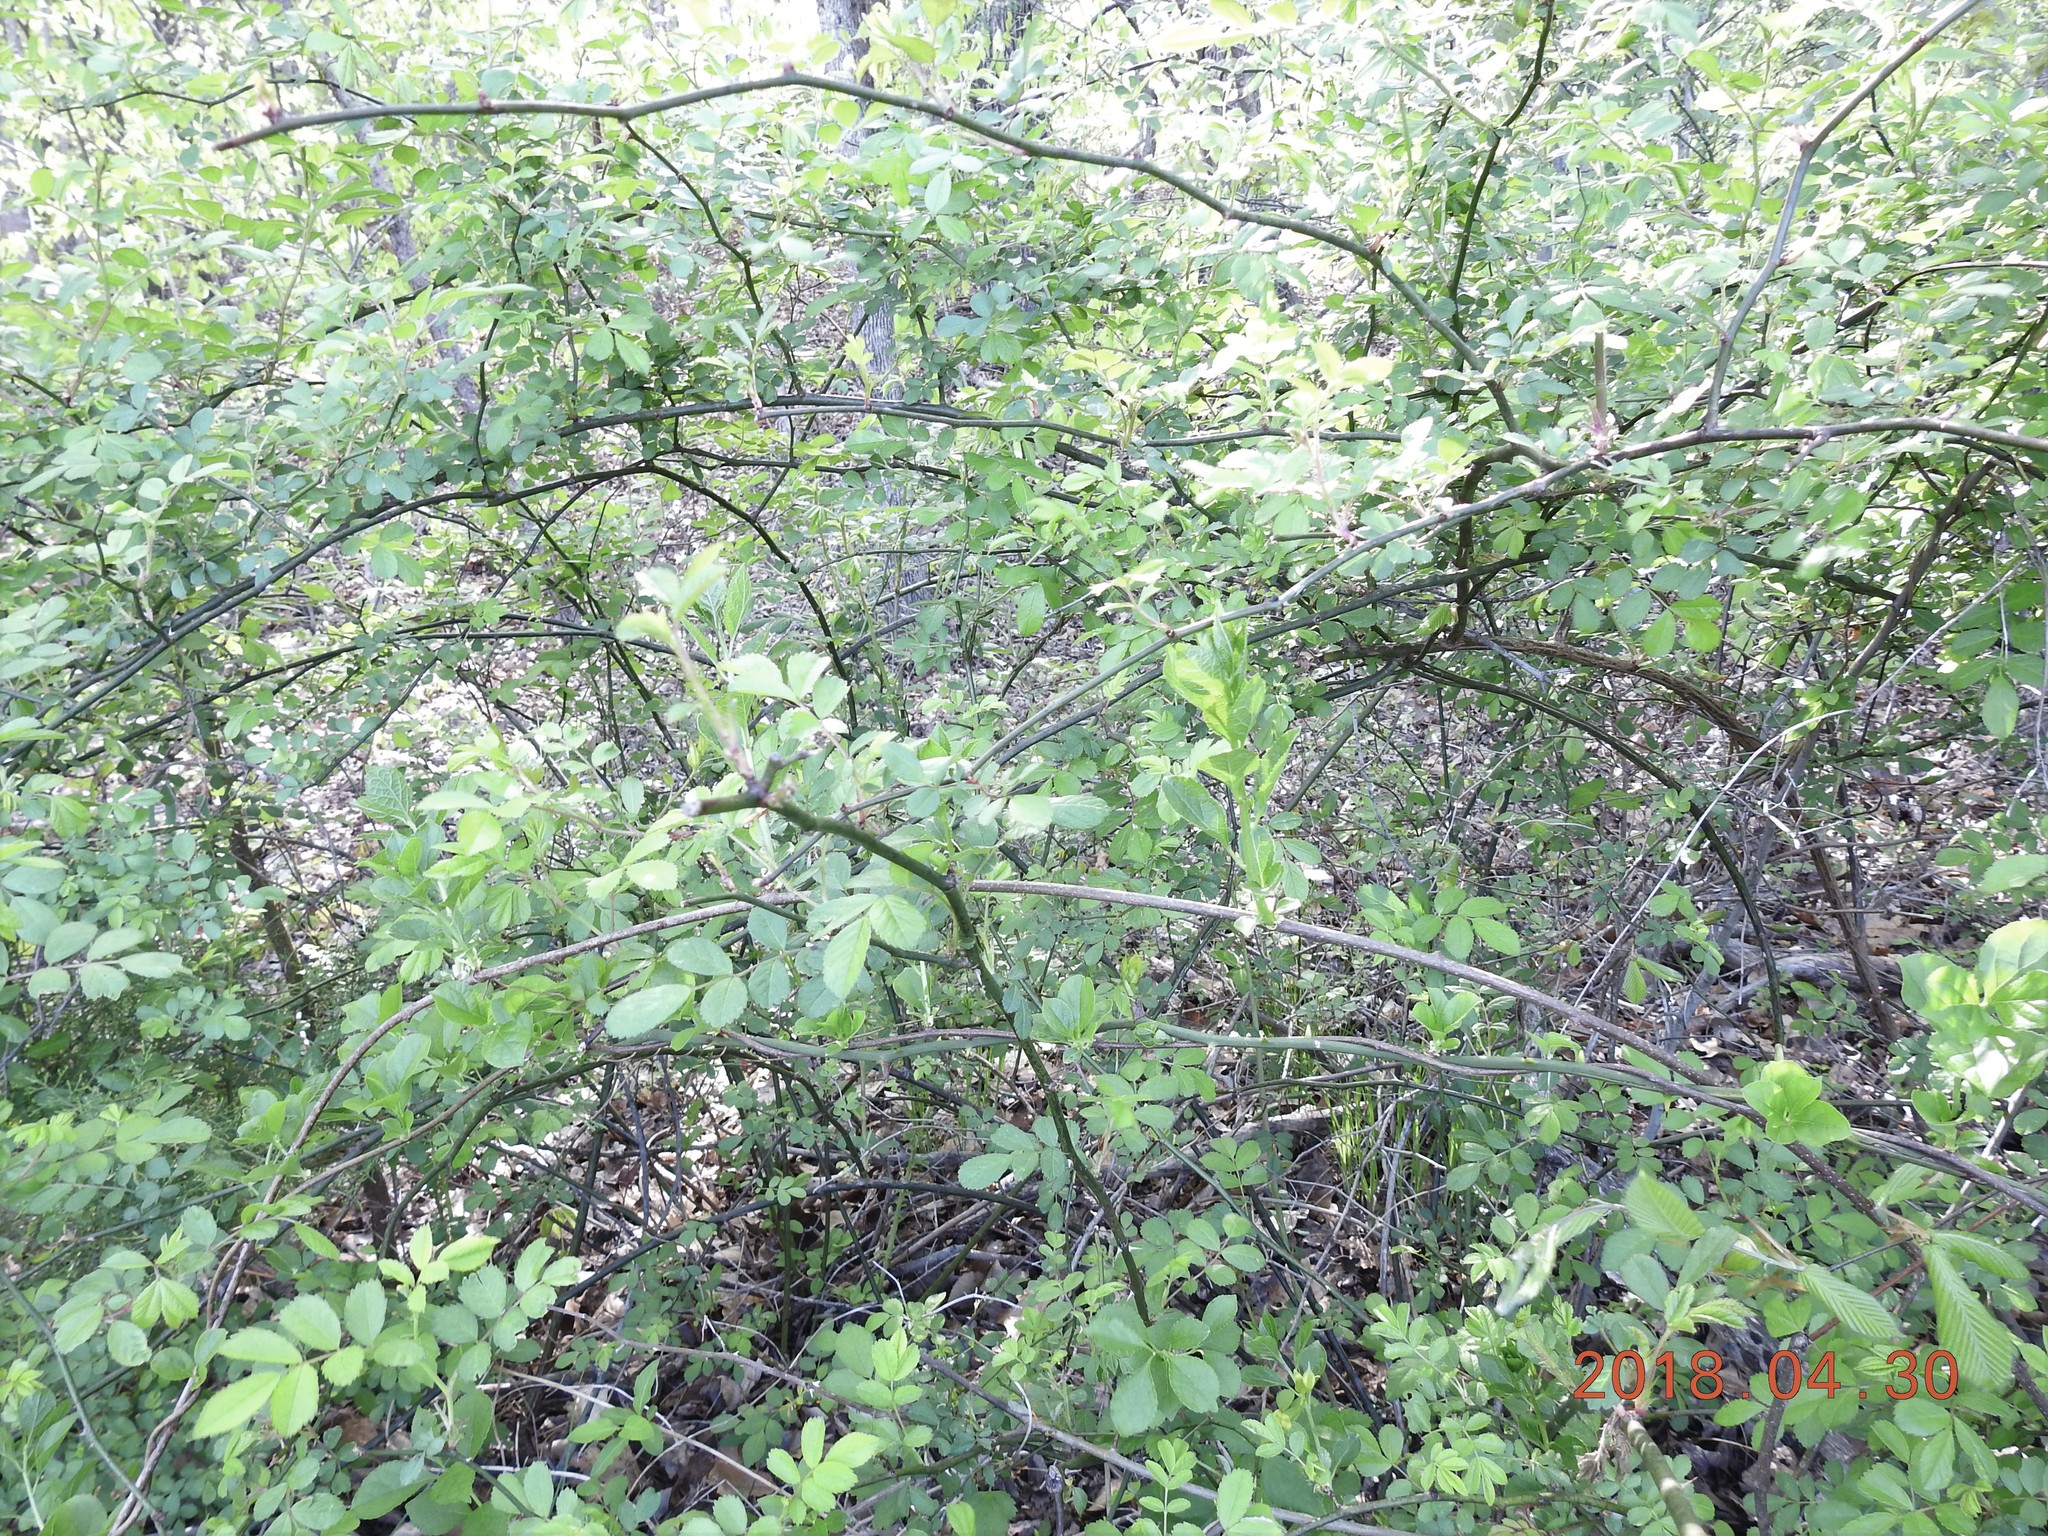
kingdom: Plantae
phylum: Tracheophyta
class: Magnoliopsida
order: Rosales
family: Rosaceae
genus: Rosa
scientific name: Rosa multiflora
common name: Multiflora rose
